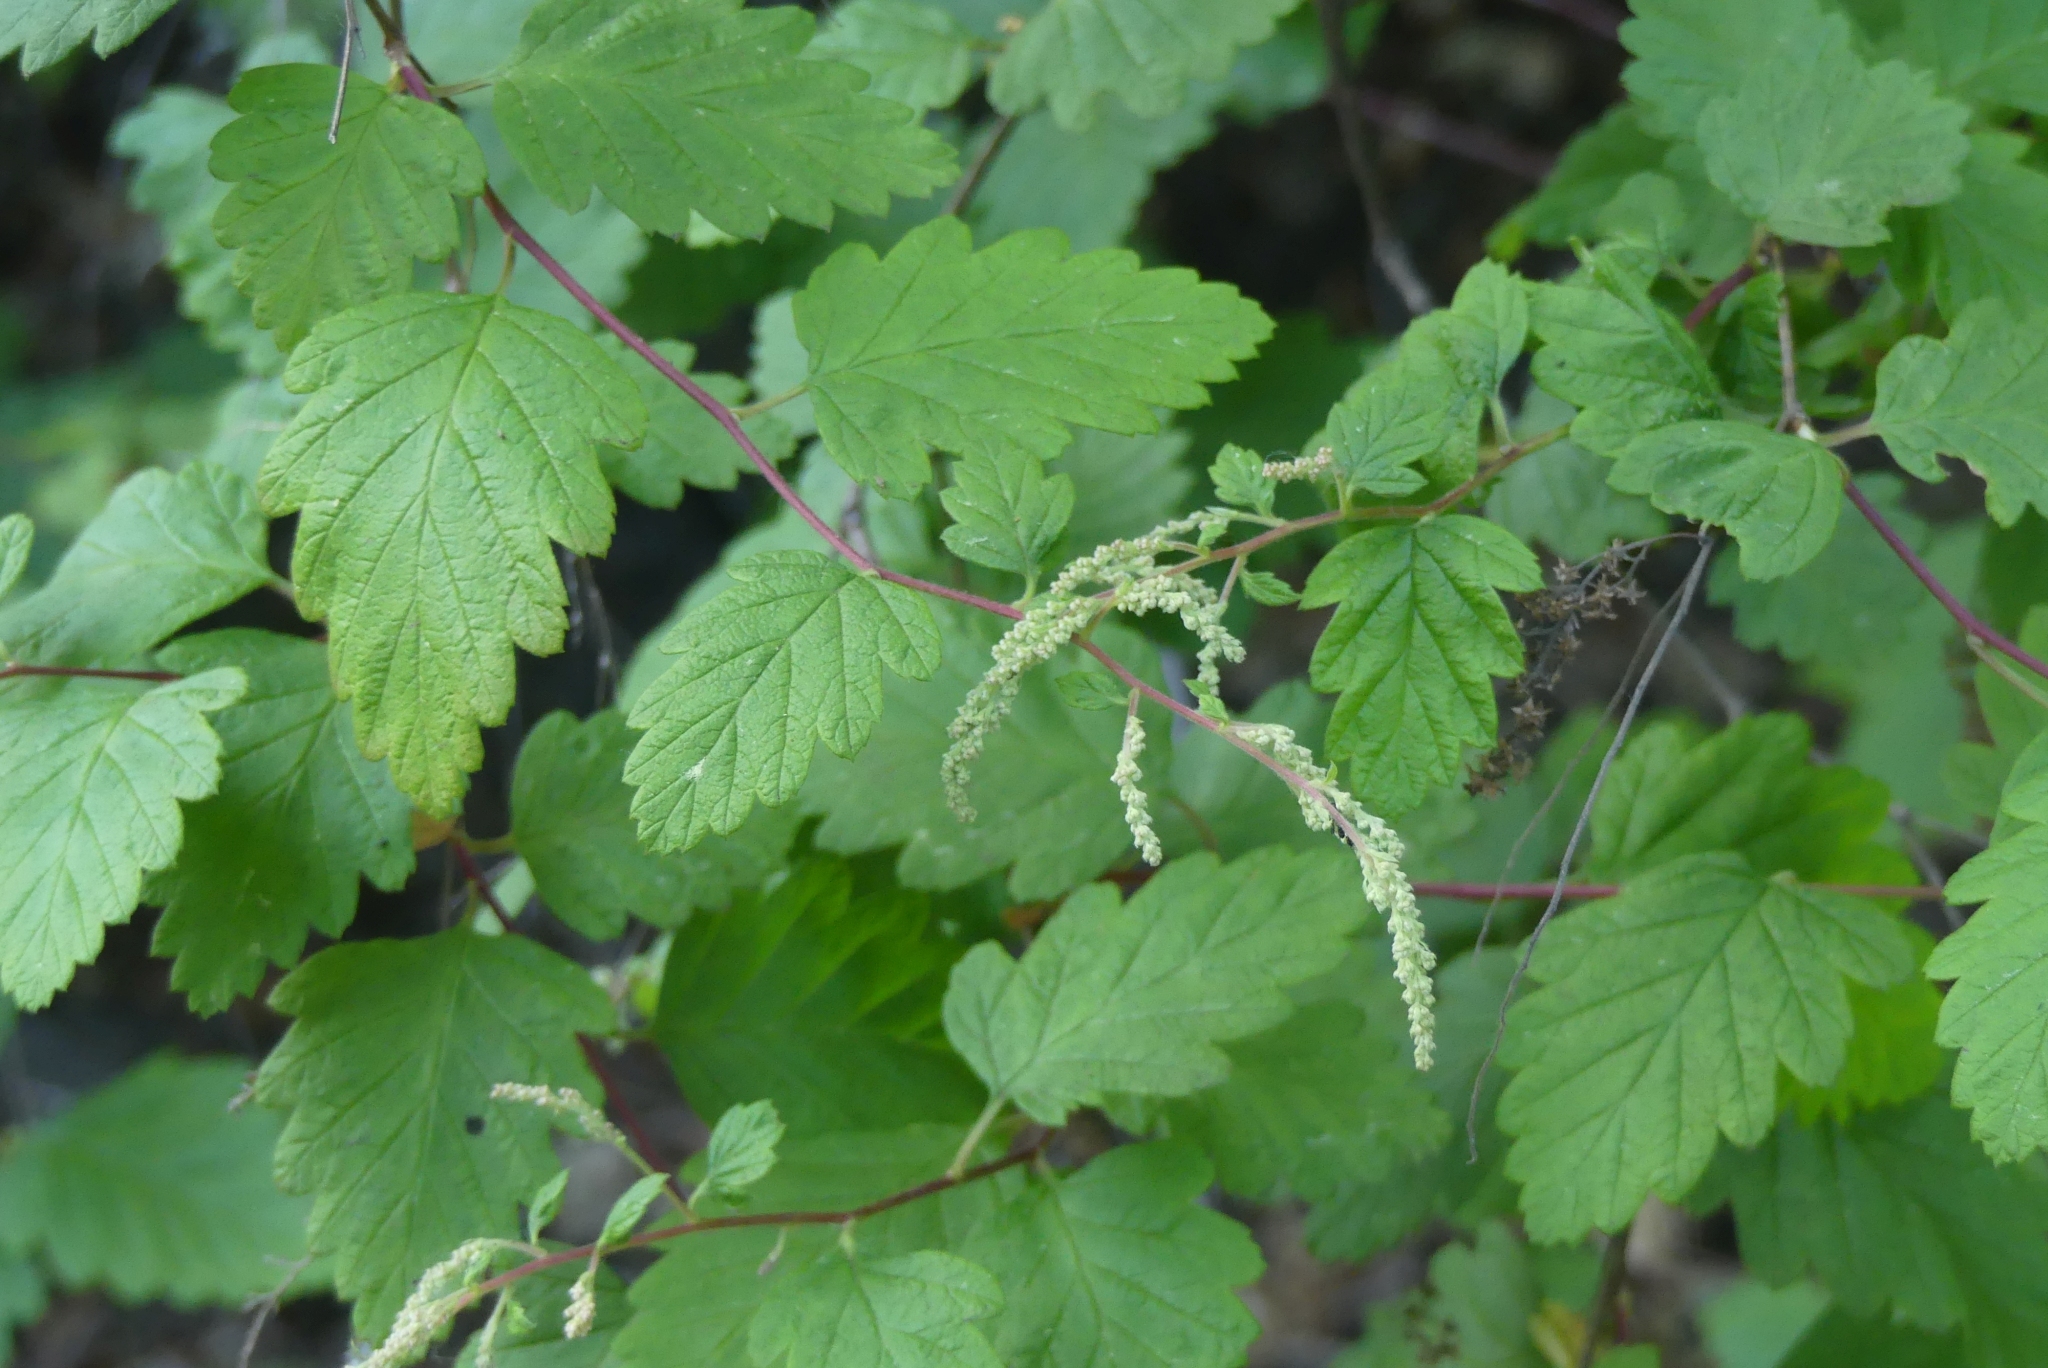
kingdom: Plantae
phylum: Tracheophyta
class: Magnoliopsida
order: Rosales
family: Rosaceae
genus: Holodiscus
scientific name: Holodiscus discolor
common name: Oceanspray
